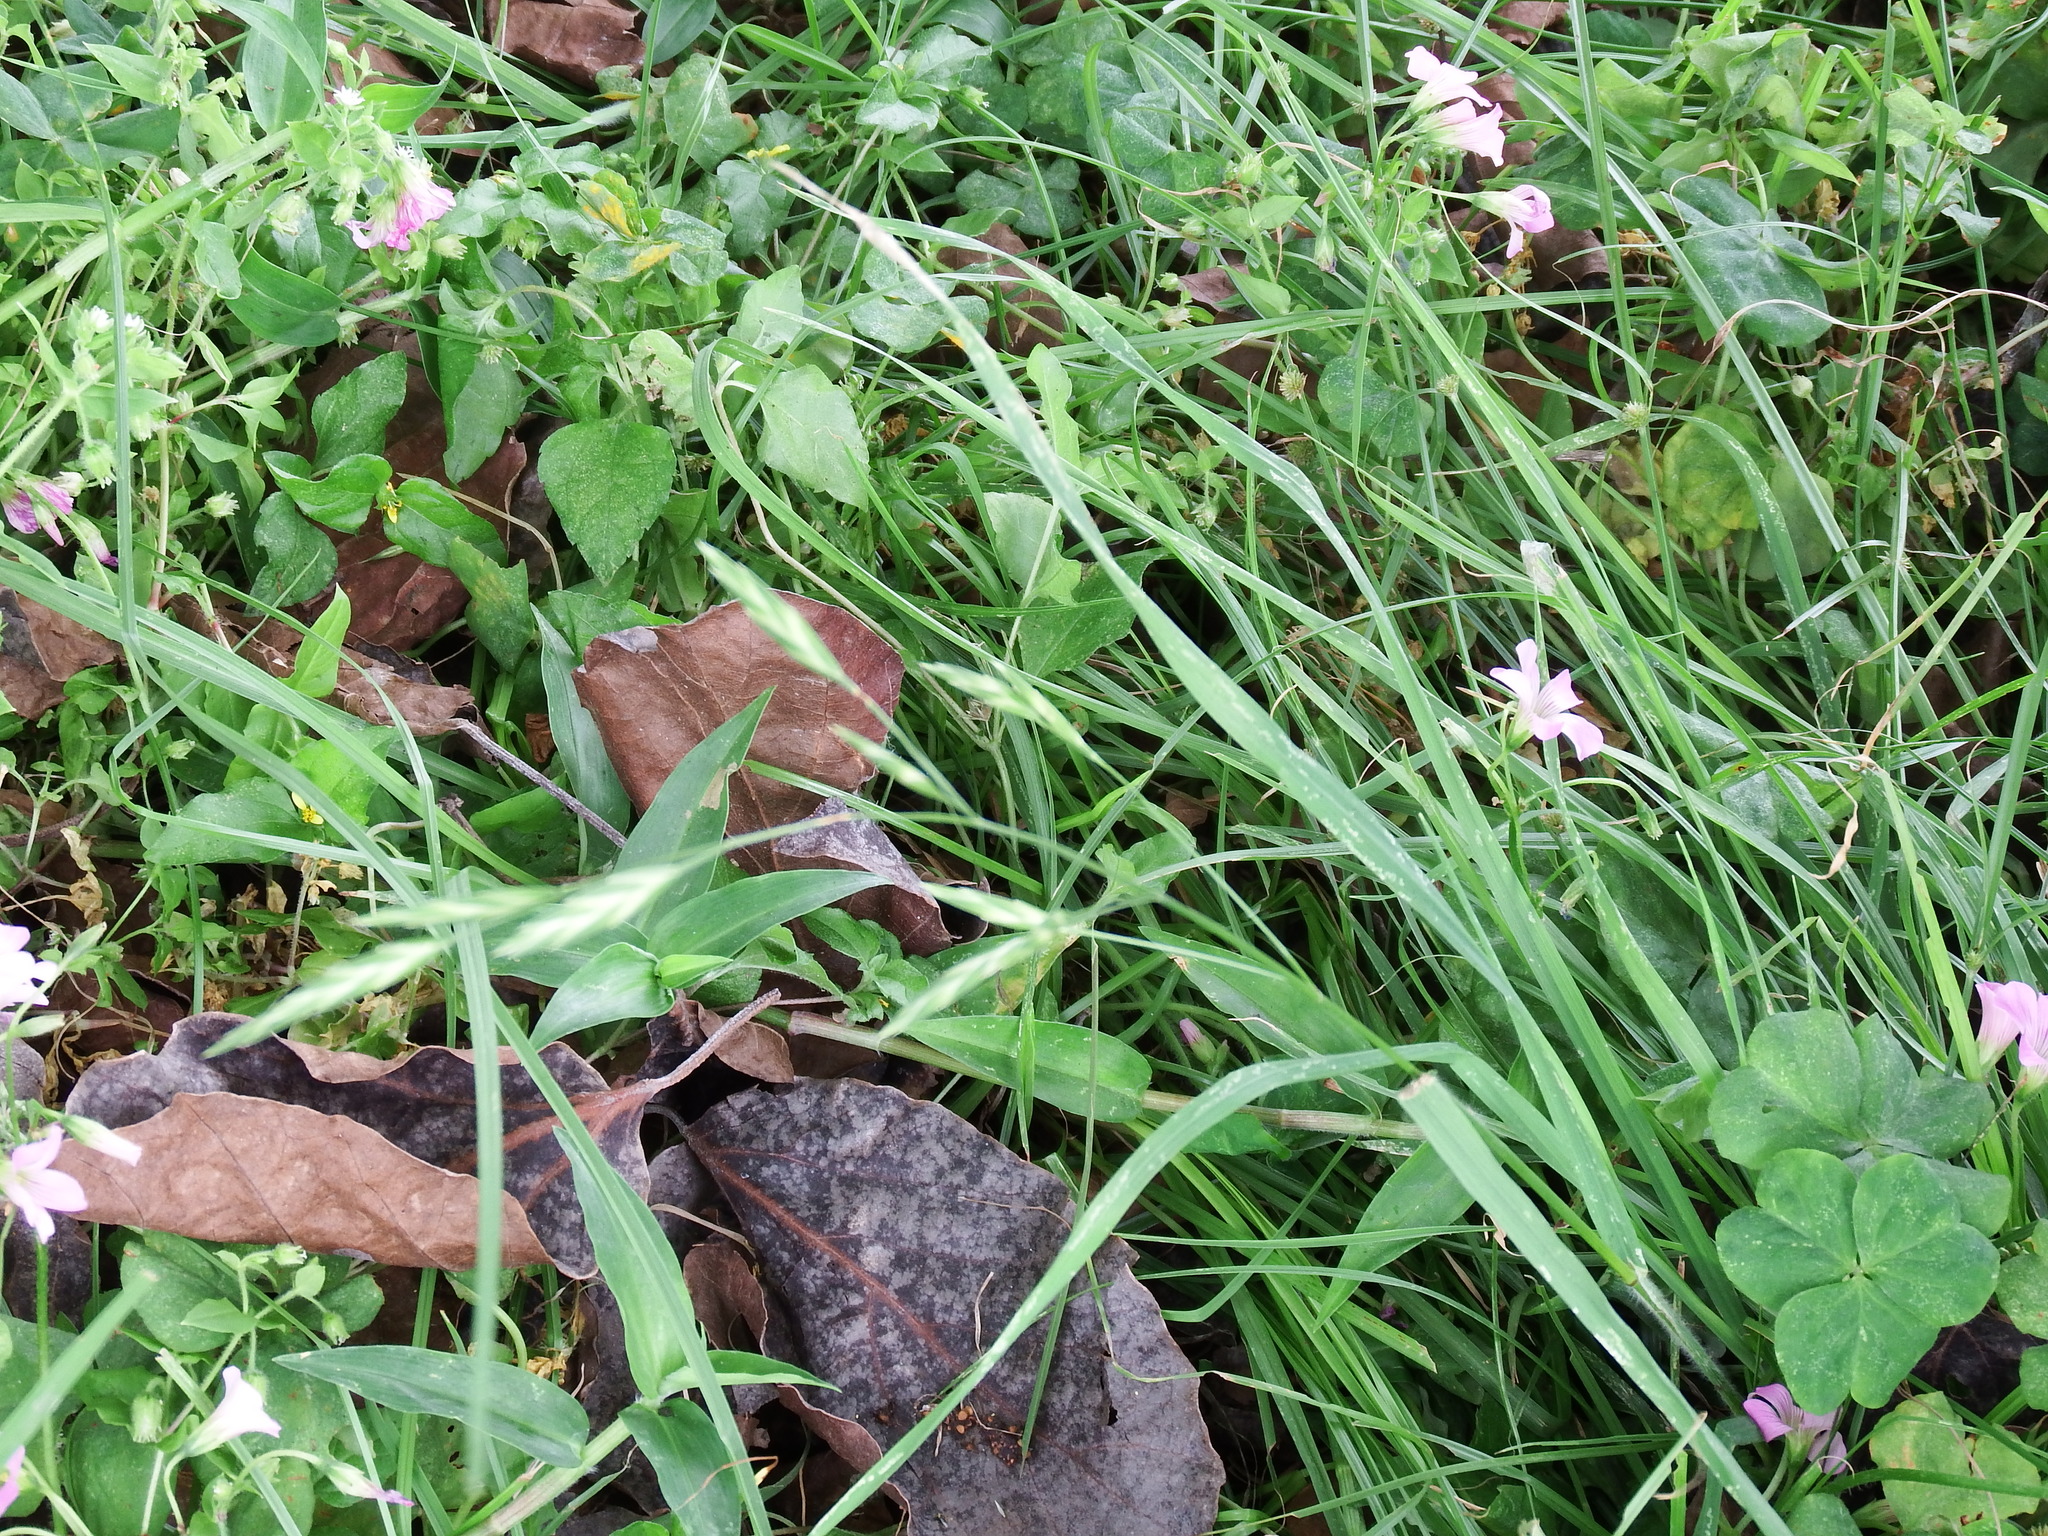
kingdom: Plantae
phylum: Tracheophyta
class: Liliopsida
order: Poales
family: Poaceae
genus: Bromus
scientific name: Bromus catharticus
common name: Rescuegrass
